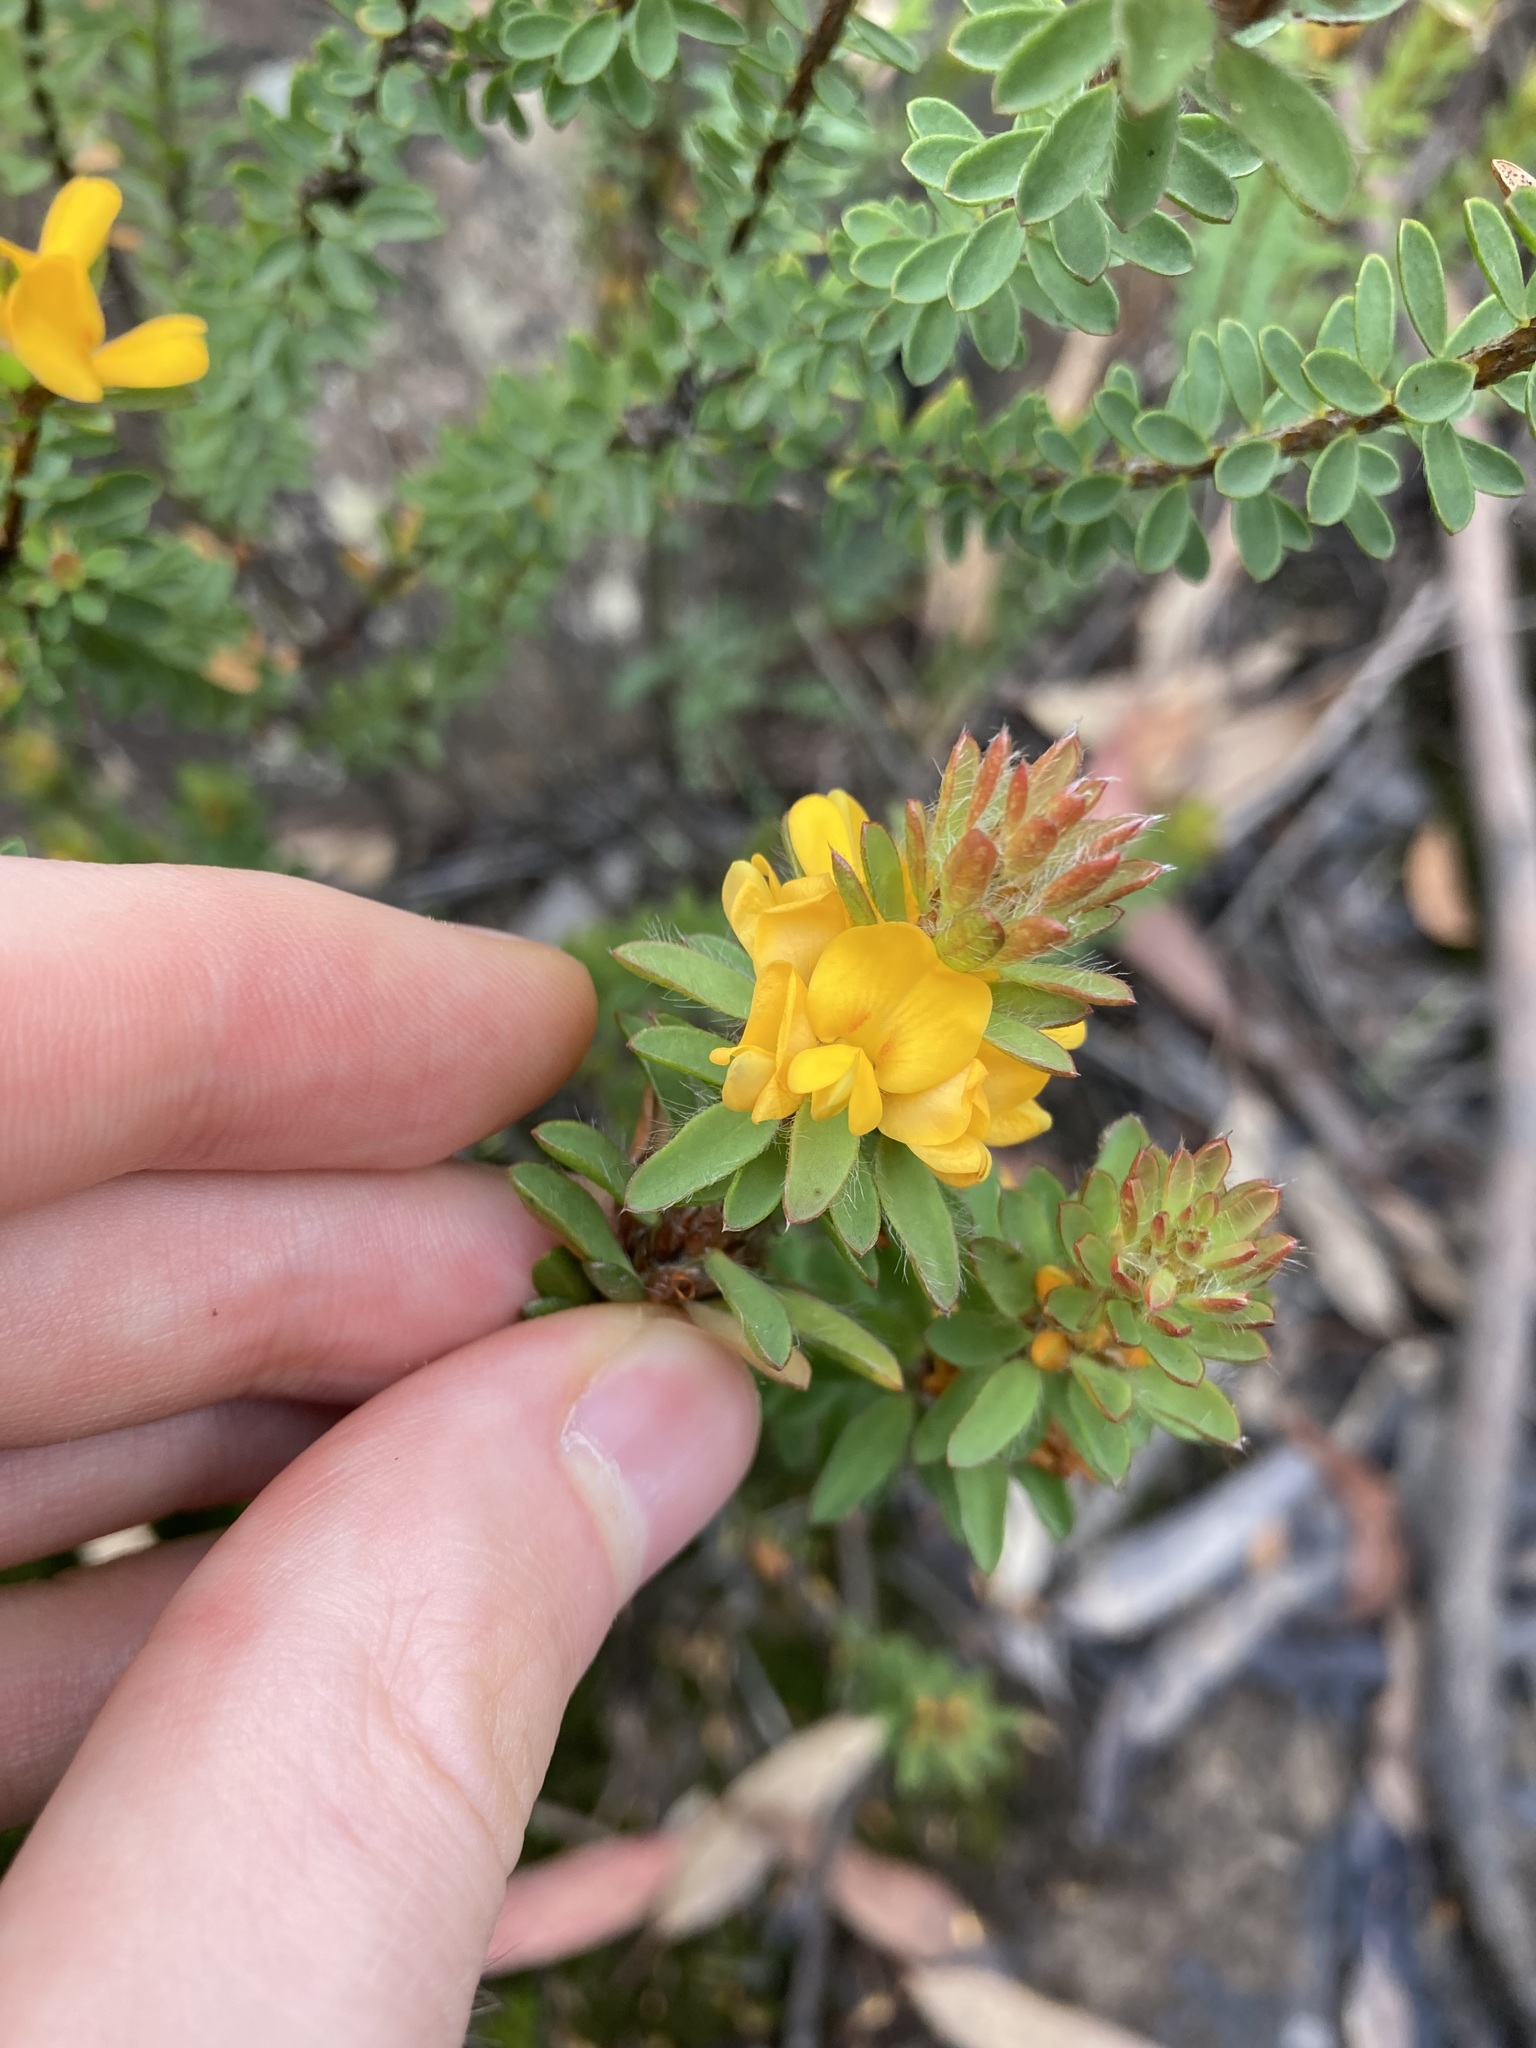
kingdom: Plantae
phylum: Tracheophyta
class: Magnoliopsida
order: Fabales
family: Fabaceae
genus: Pultenaea
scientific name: Pultenaea tuberculata
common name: Wreath bush-pea
